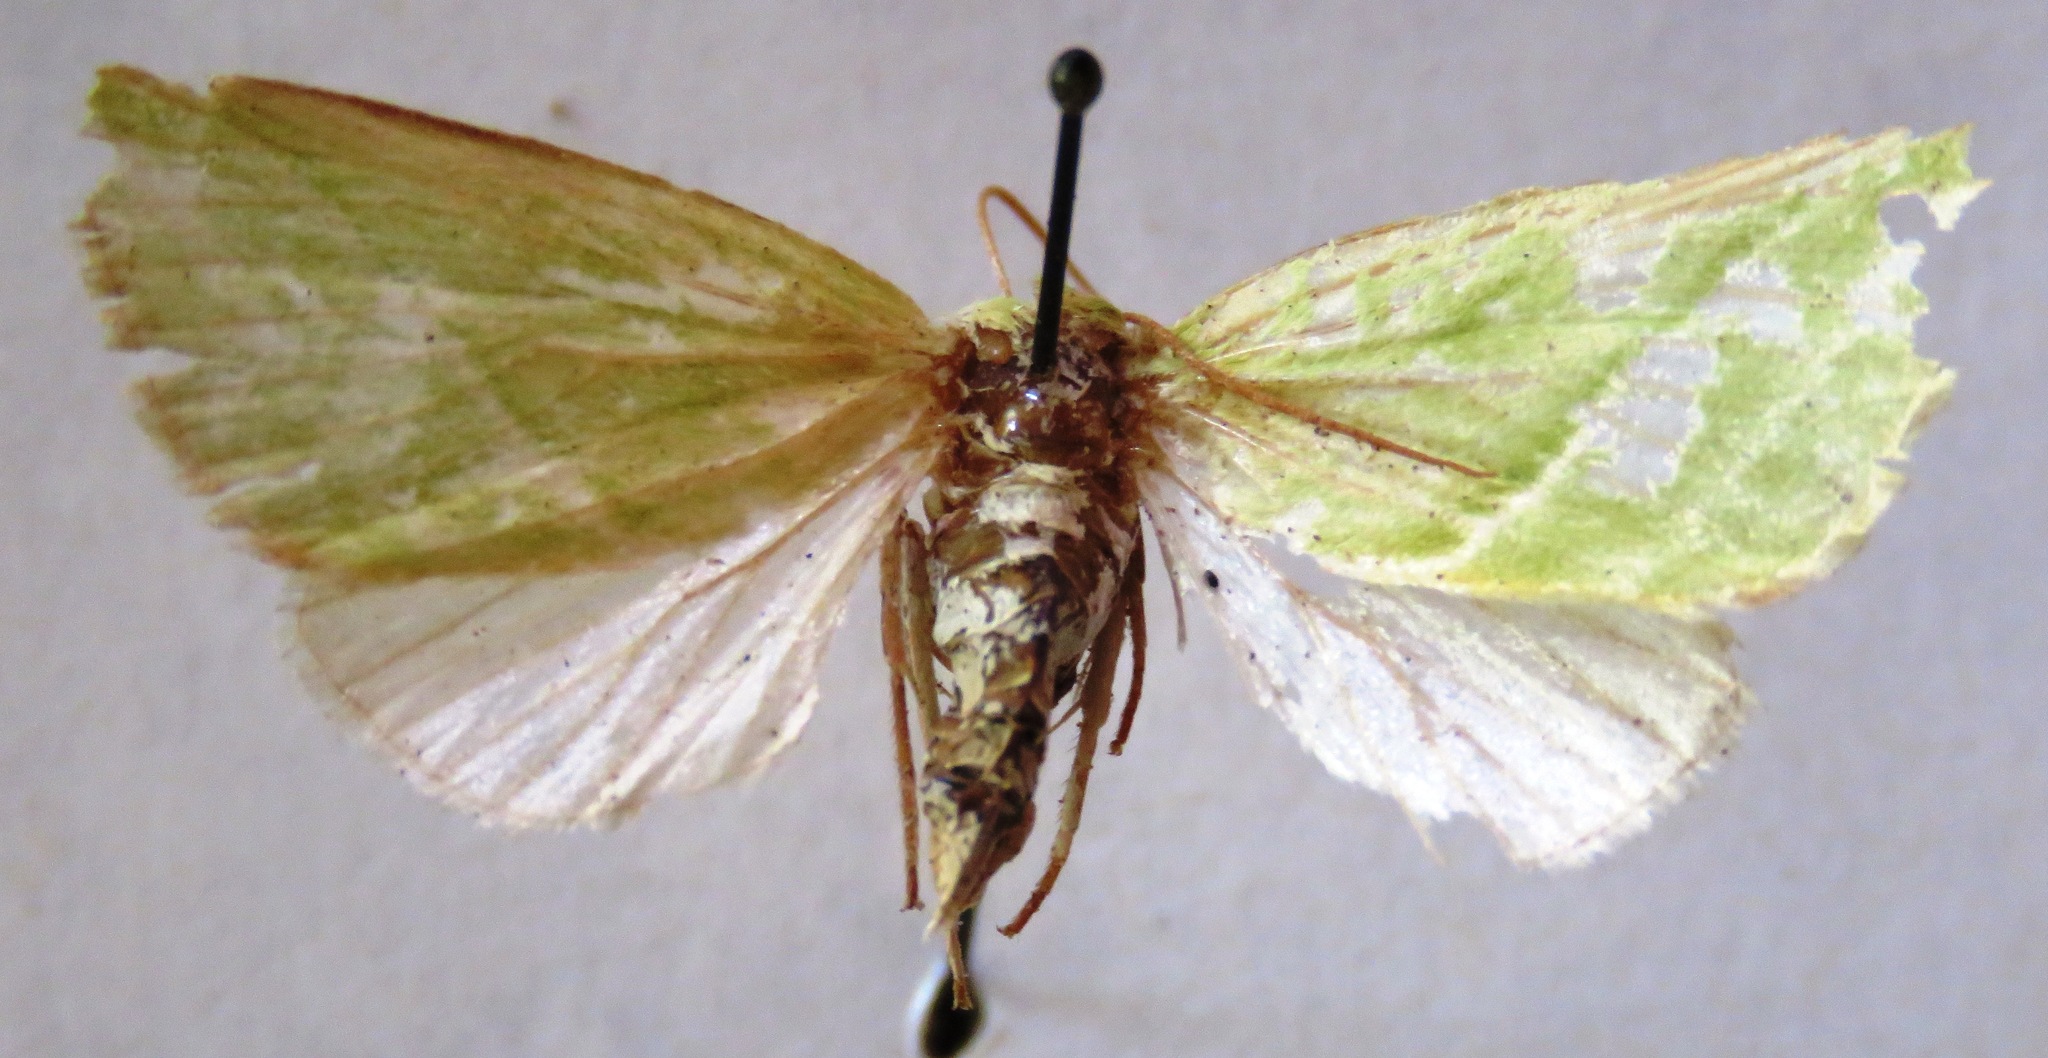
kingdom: Animalia
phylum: Arthropoda
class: Insecta
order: Lepidoptera
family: Nolidae
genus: Pseudoips
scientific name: Pseudoips prasinana
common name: Green silver-lines
